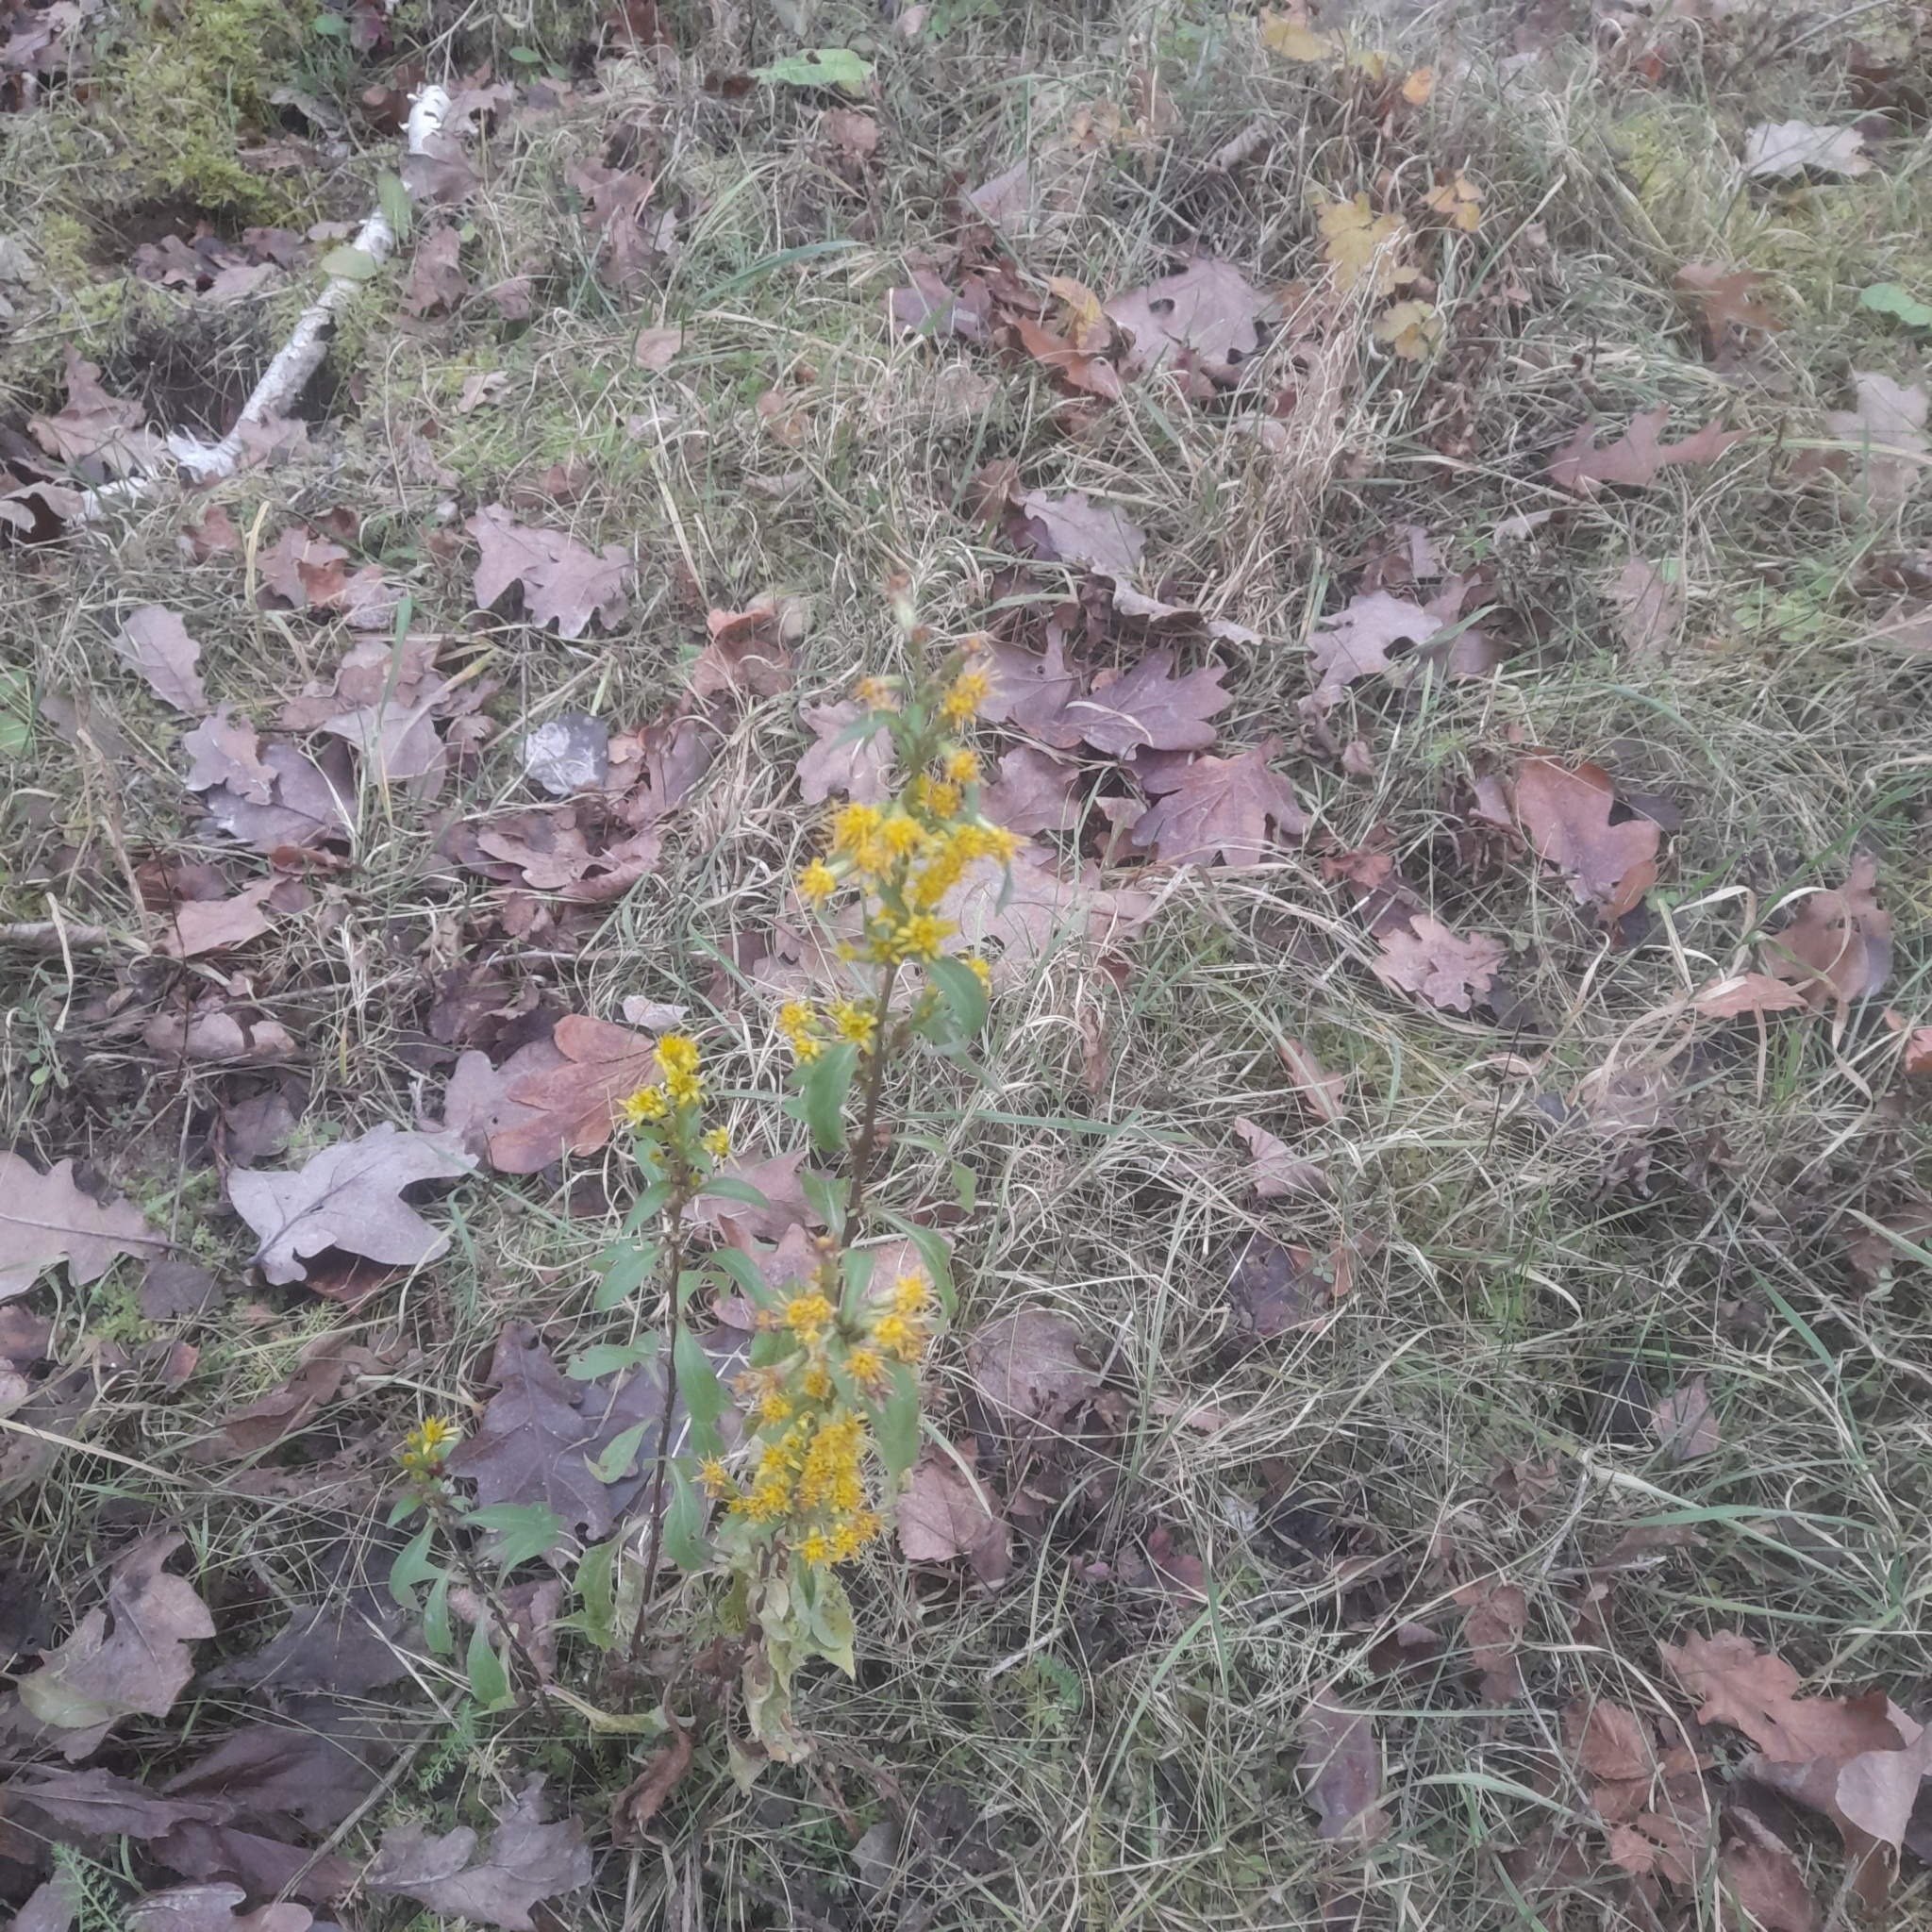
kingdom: Plantae
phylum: Tracheophyta
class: Magnoliopsida
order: Asterales
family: Asteraceae
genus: Solidago
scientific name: Solidago virgaurea
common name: Goldenrod
